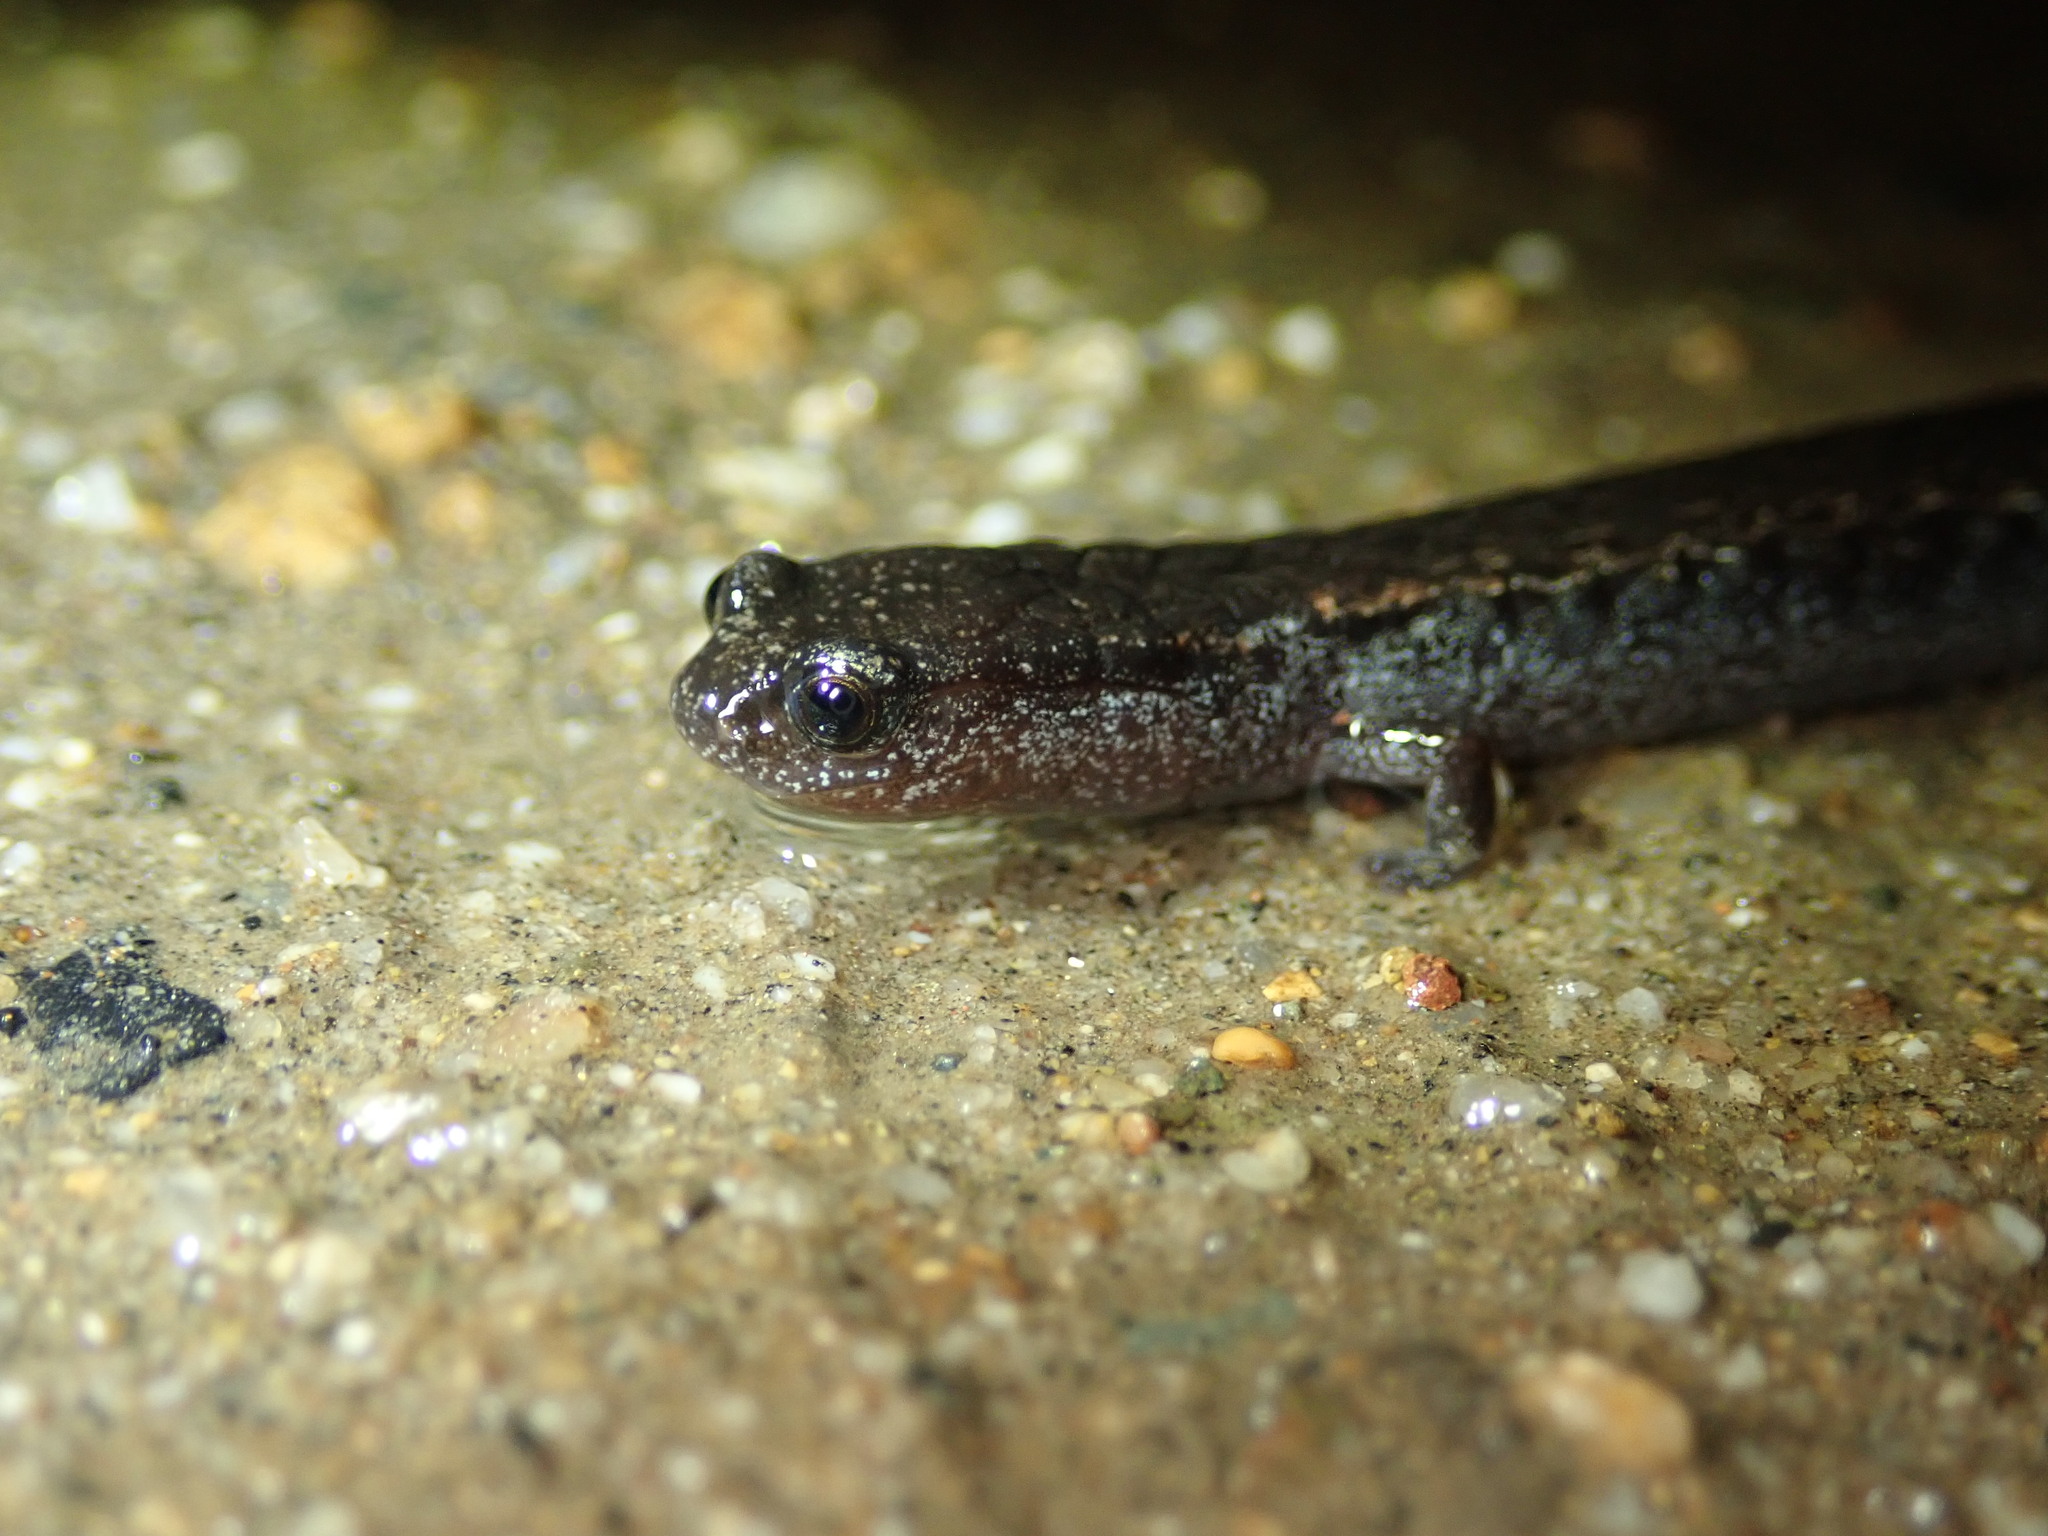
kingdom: Animalia
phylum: Chordata
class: Amphibia
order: Caudata
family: Plethodontidae
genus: Batrachoseps
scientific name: Batrachoseps attenuatus
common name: California slender salamander
